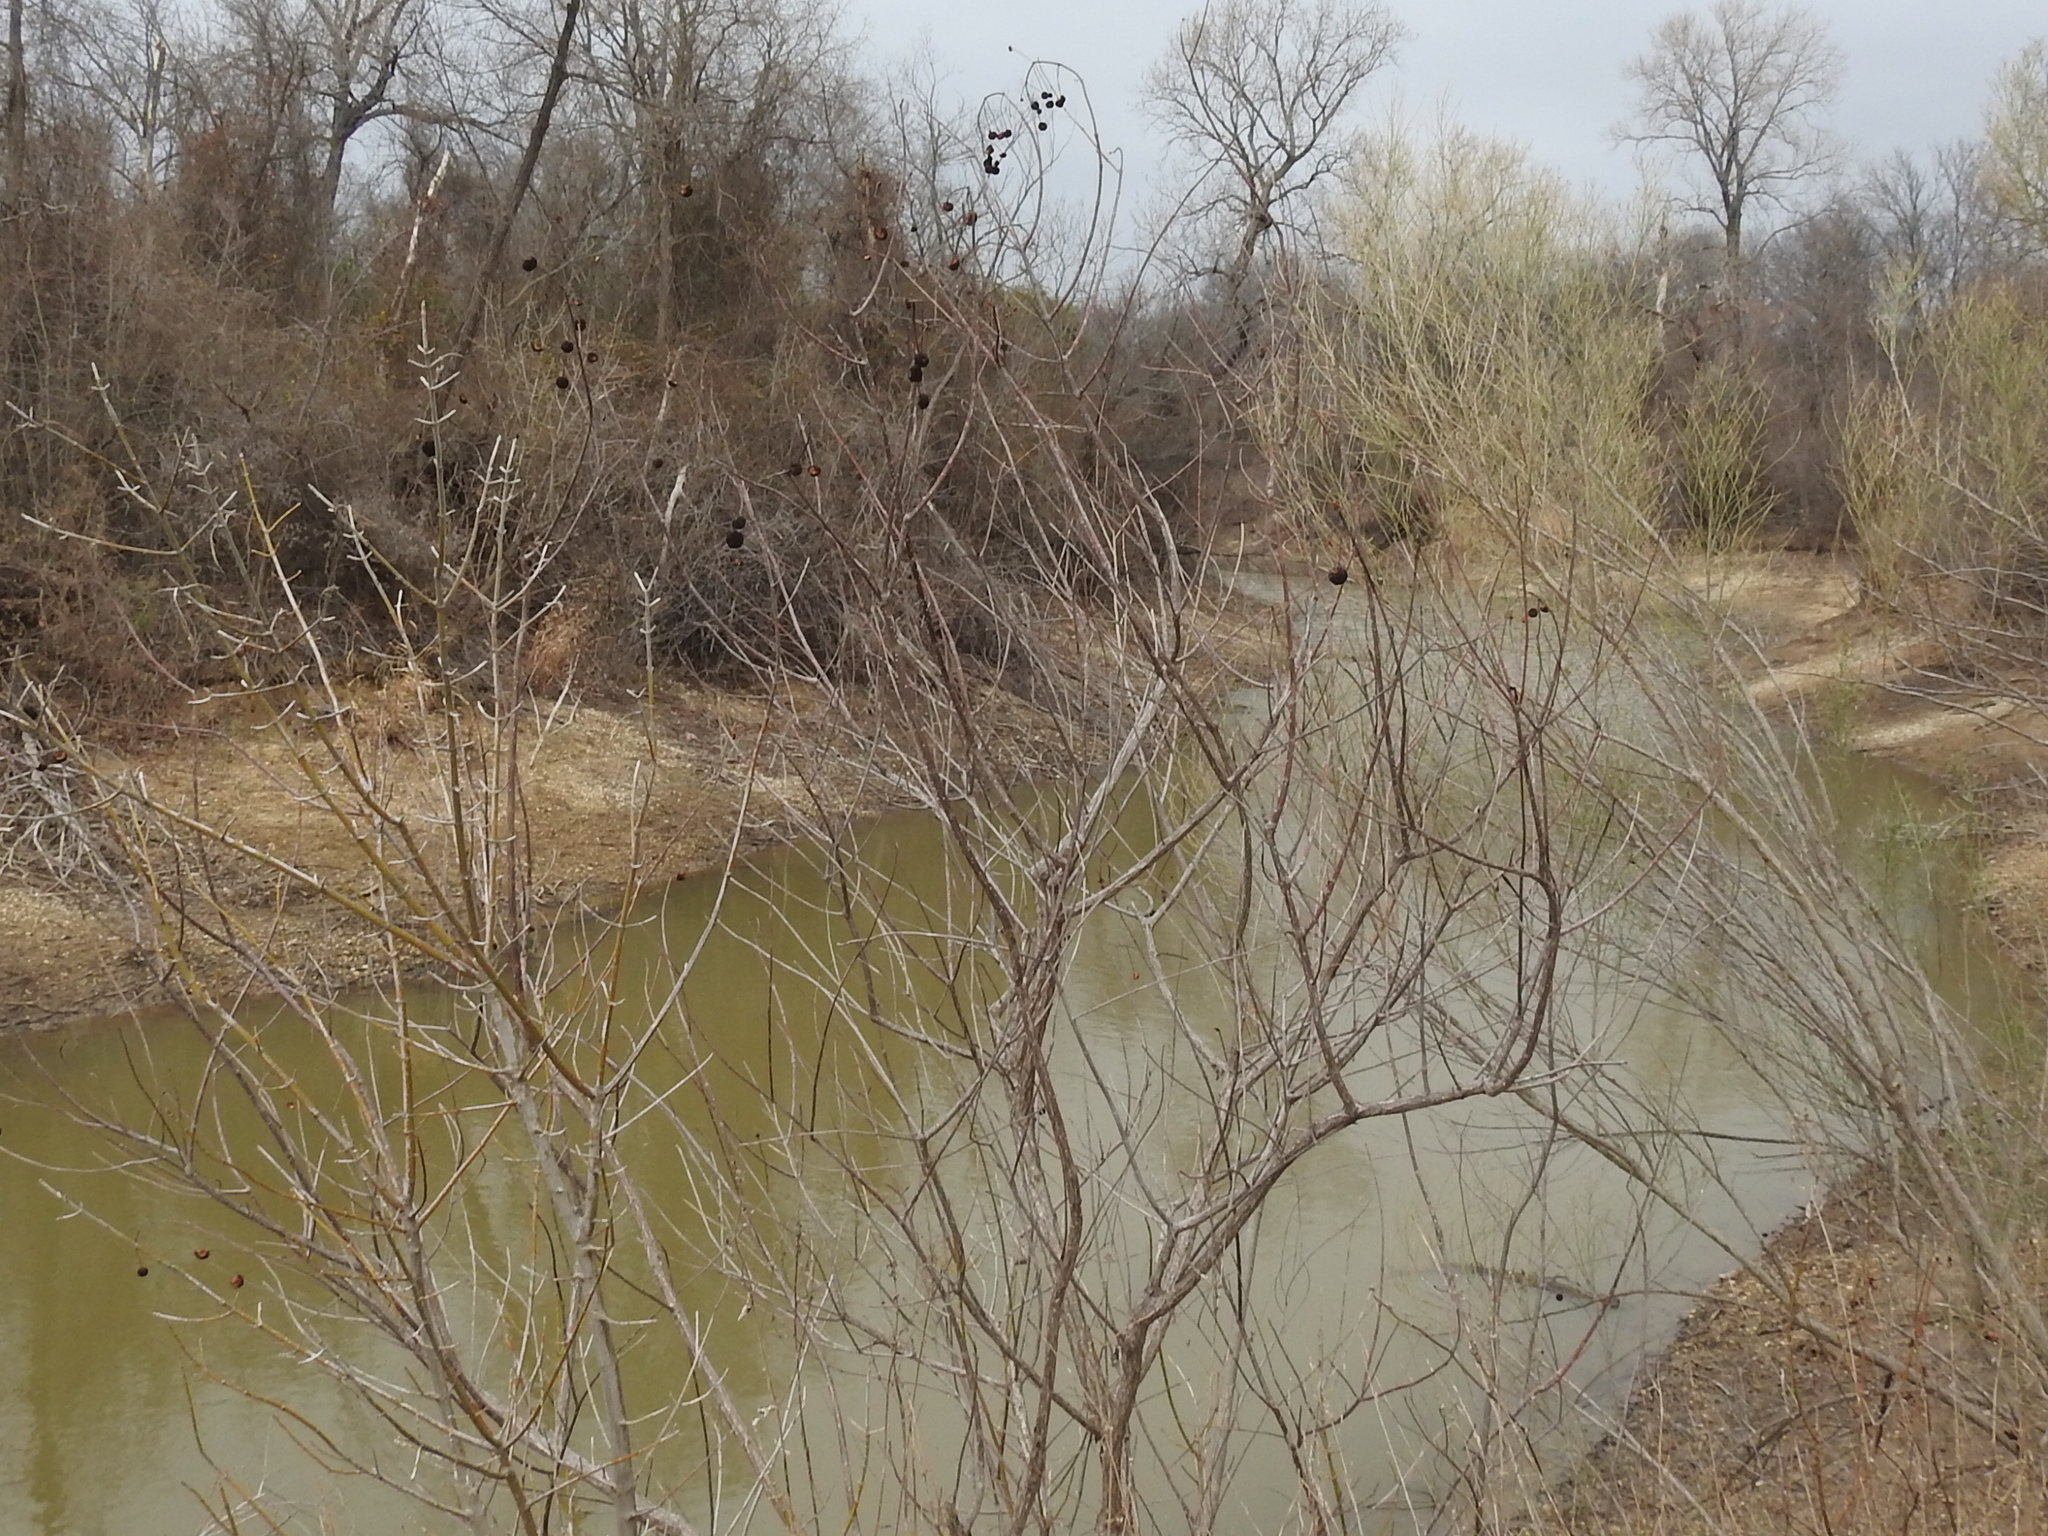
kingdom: Plantae
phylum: Tracheophyta
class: Magnoliopsida
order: Gentianales
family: Rubiaceae
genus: Cephalanthus
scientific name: Cephalanthus occidentalis
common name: Button-willow
